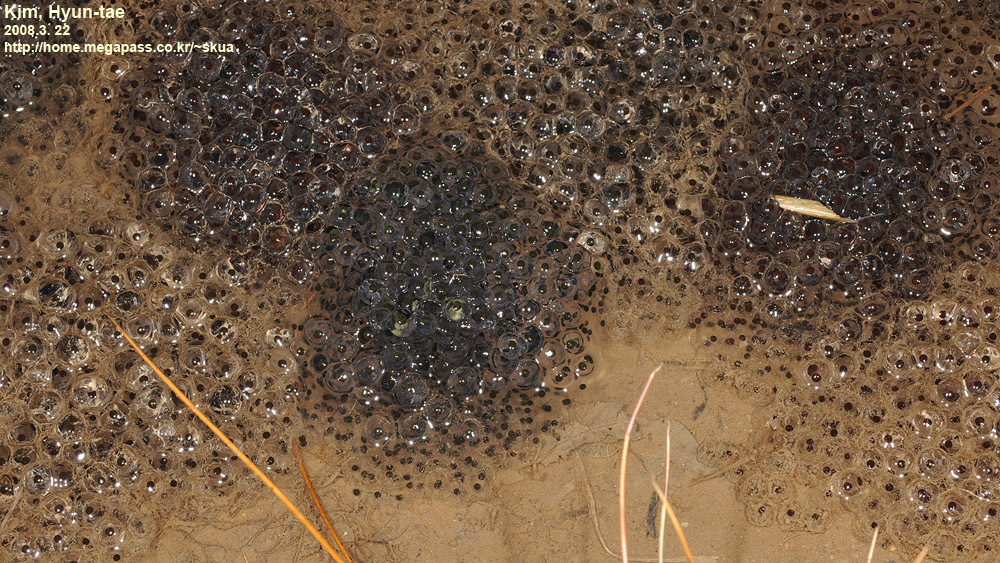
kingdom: Animalia
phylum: Chordata
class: Amphibia
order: Anura
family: Ranidae
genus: Rana
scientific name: Rana uenoi
